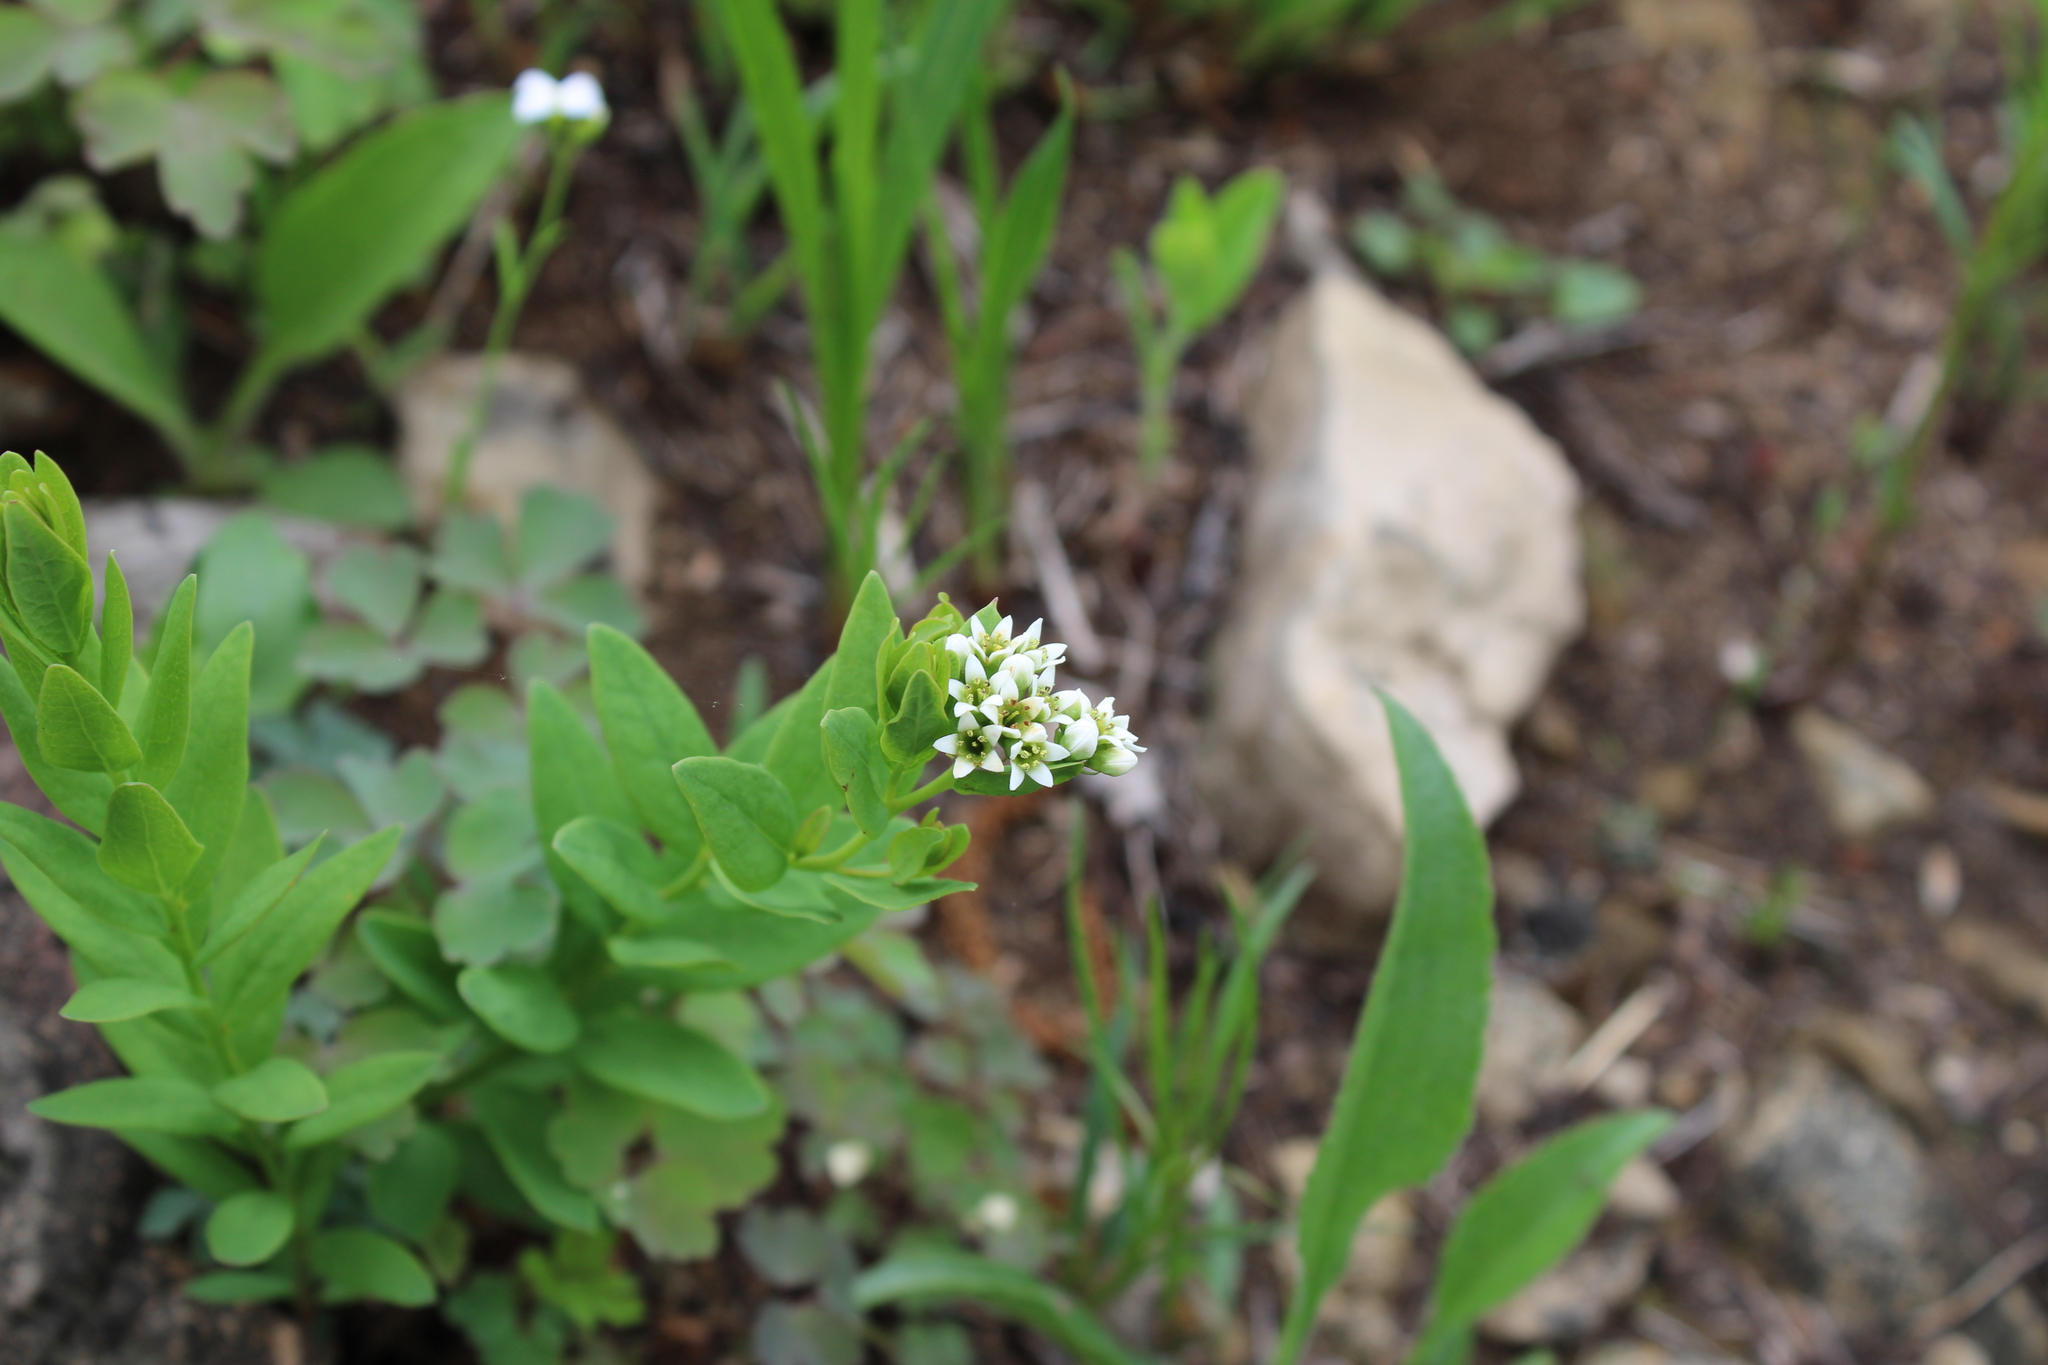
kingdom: Plantae
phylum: Tracheophyta
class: Magnoliopsida
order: Santalales
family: Comandraceae
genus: Comandra
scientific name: Comandra umbellata
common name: Bastard toadflax
